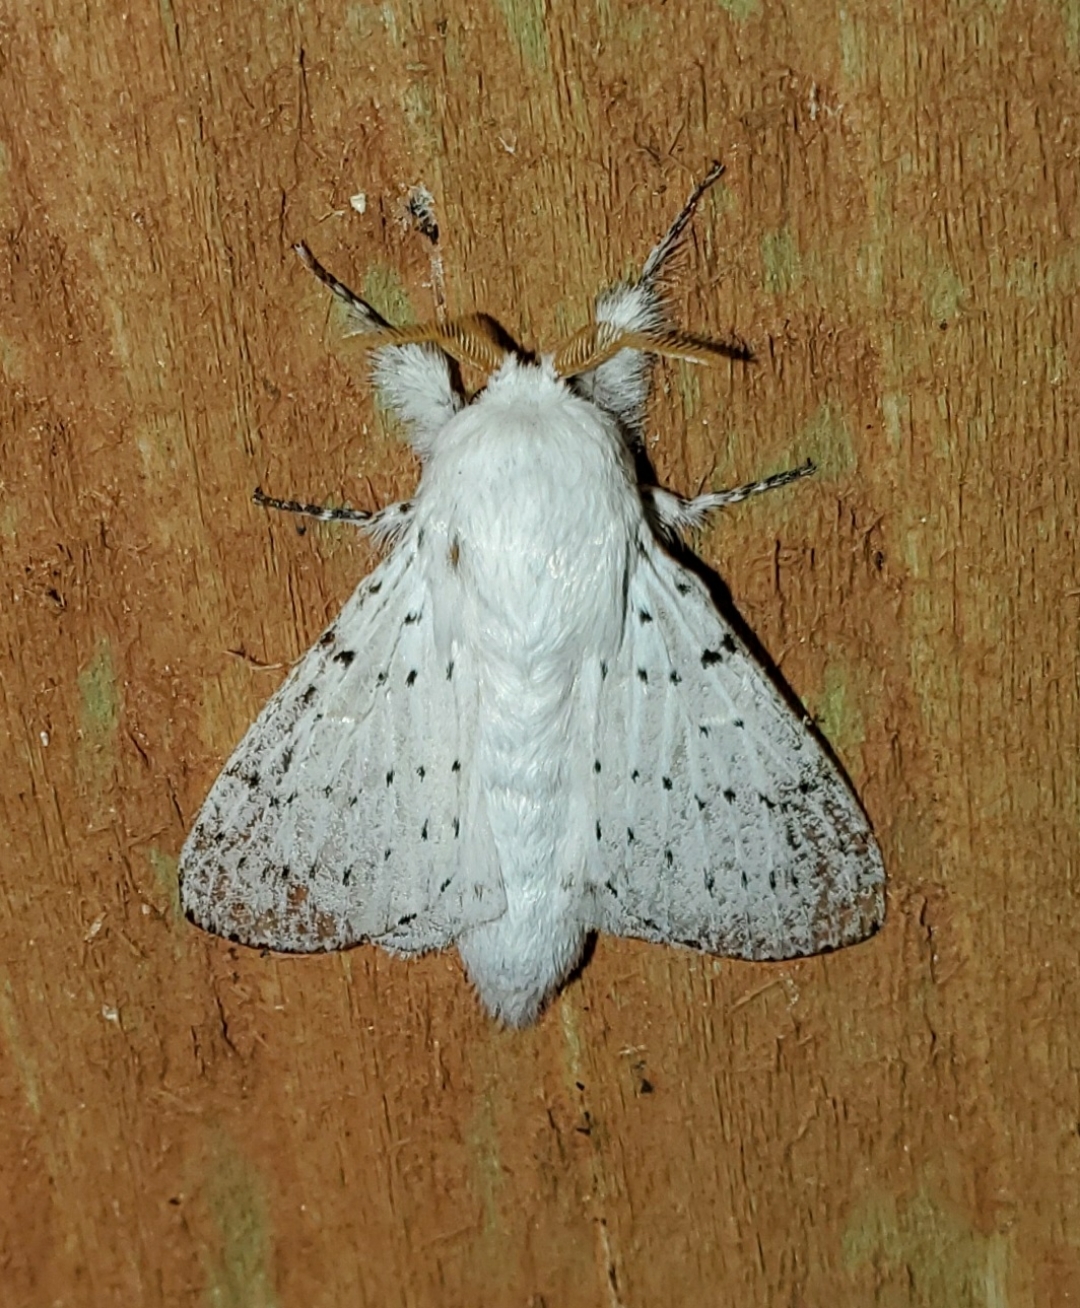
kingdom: Animalia
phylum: Arthropoda
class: Insecta
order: Lepidoptera
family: Lasiocampidae
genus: Artace
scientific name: Artace cribrarius
